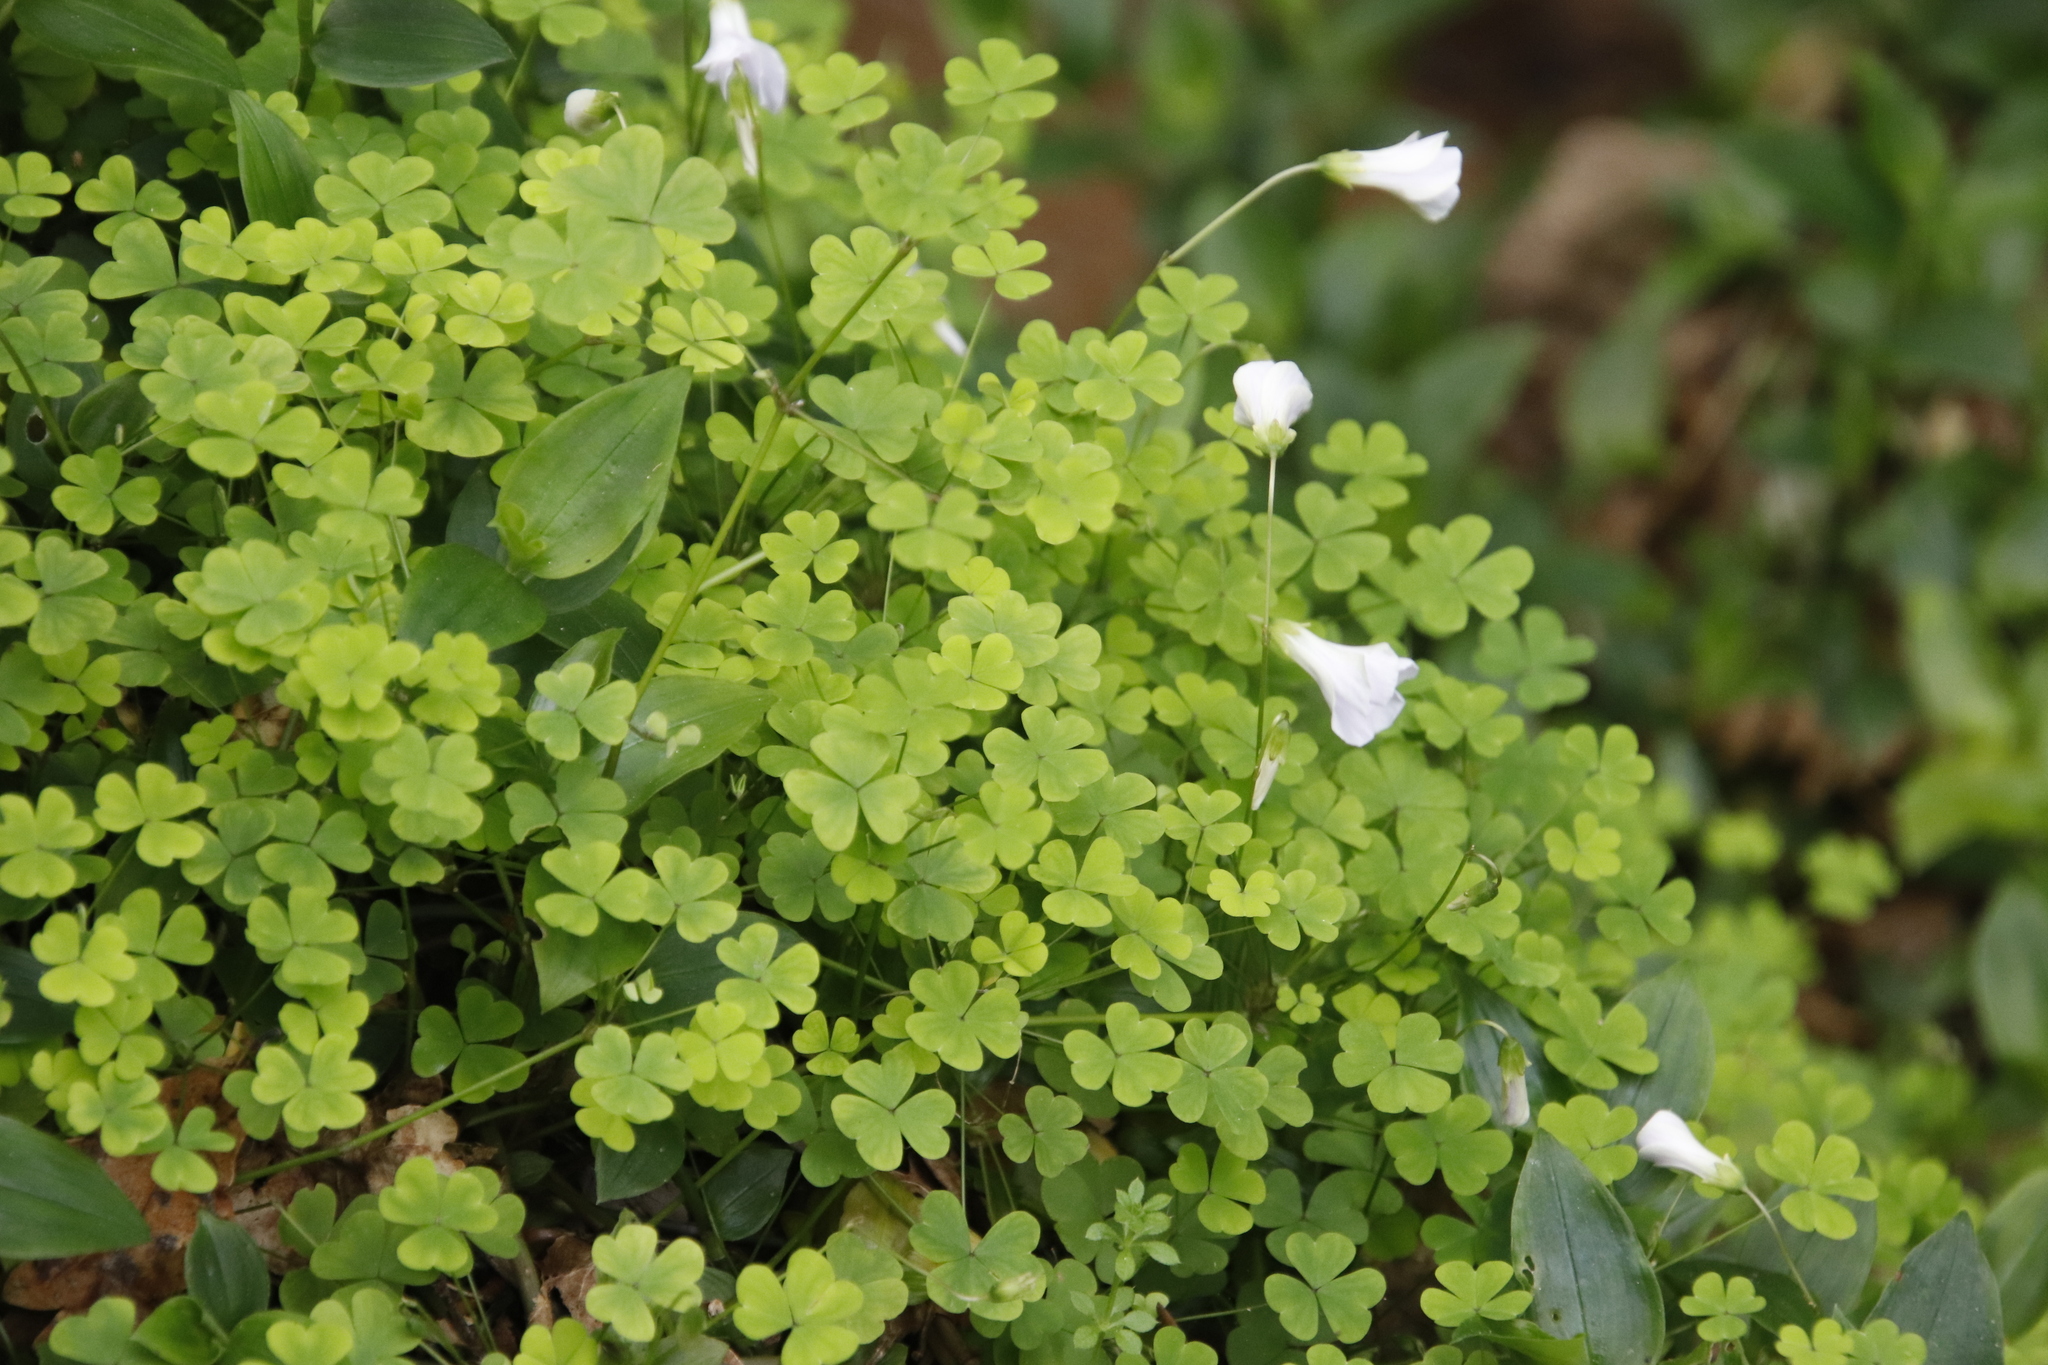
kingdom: Plantae
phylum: Tracheophyta
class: Magnoliopsida
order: Oxalidales
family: Oxalidaceae
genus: Oxalis
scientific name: Oxalis incarnata
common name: Pale pink-sorrel
